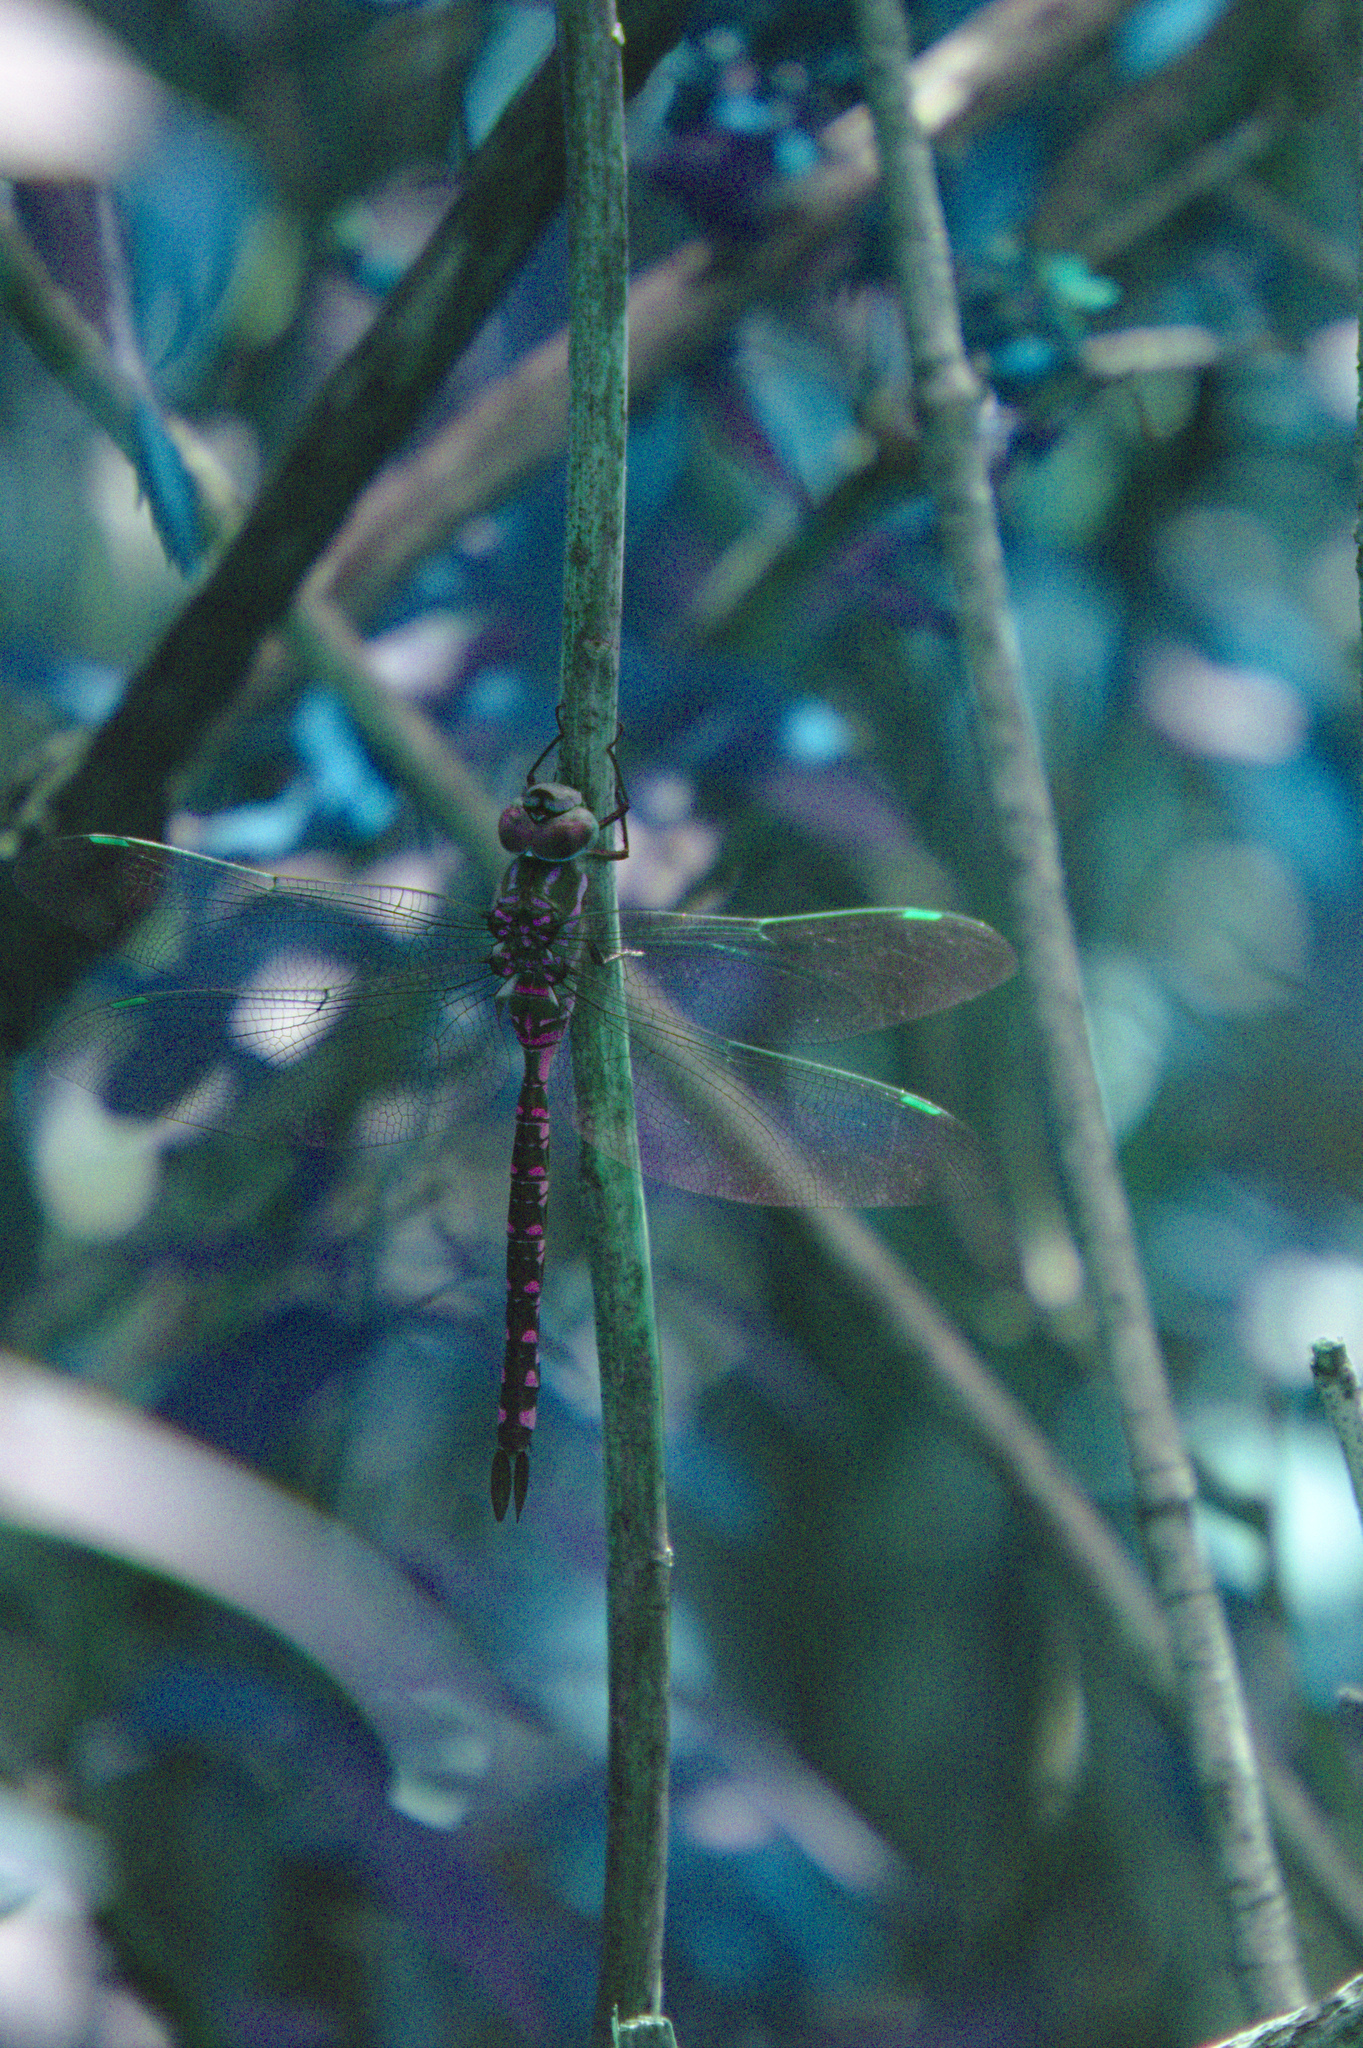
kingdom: Animalia
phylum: Arthropoda
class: Insecta
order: Odonata
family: Aeshnidae
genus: Aeshna
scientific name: Aeshna constricta
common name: Lance-tipped darner
